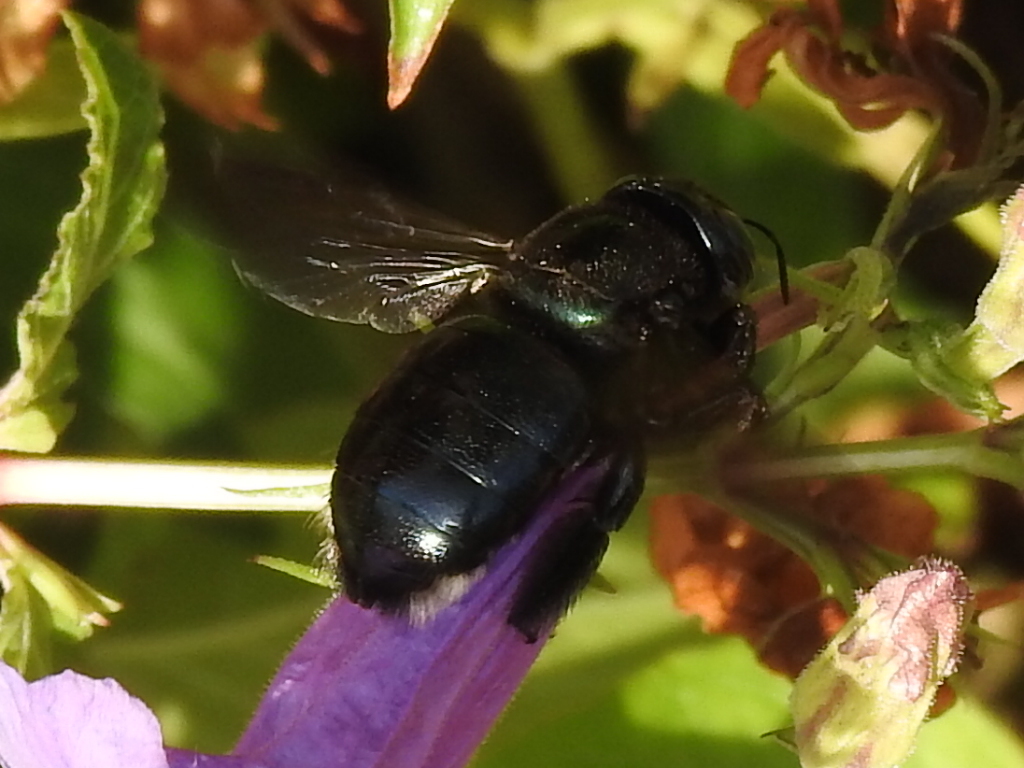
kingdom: Animalia
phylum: Arthropoda
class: Insecta
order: Hymenoptera
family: Apidae
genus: Xylocopa
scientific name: Xylocopa micans
